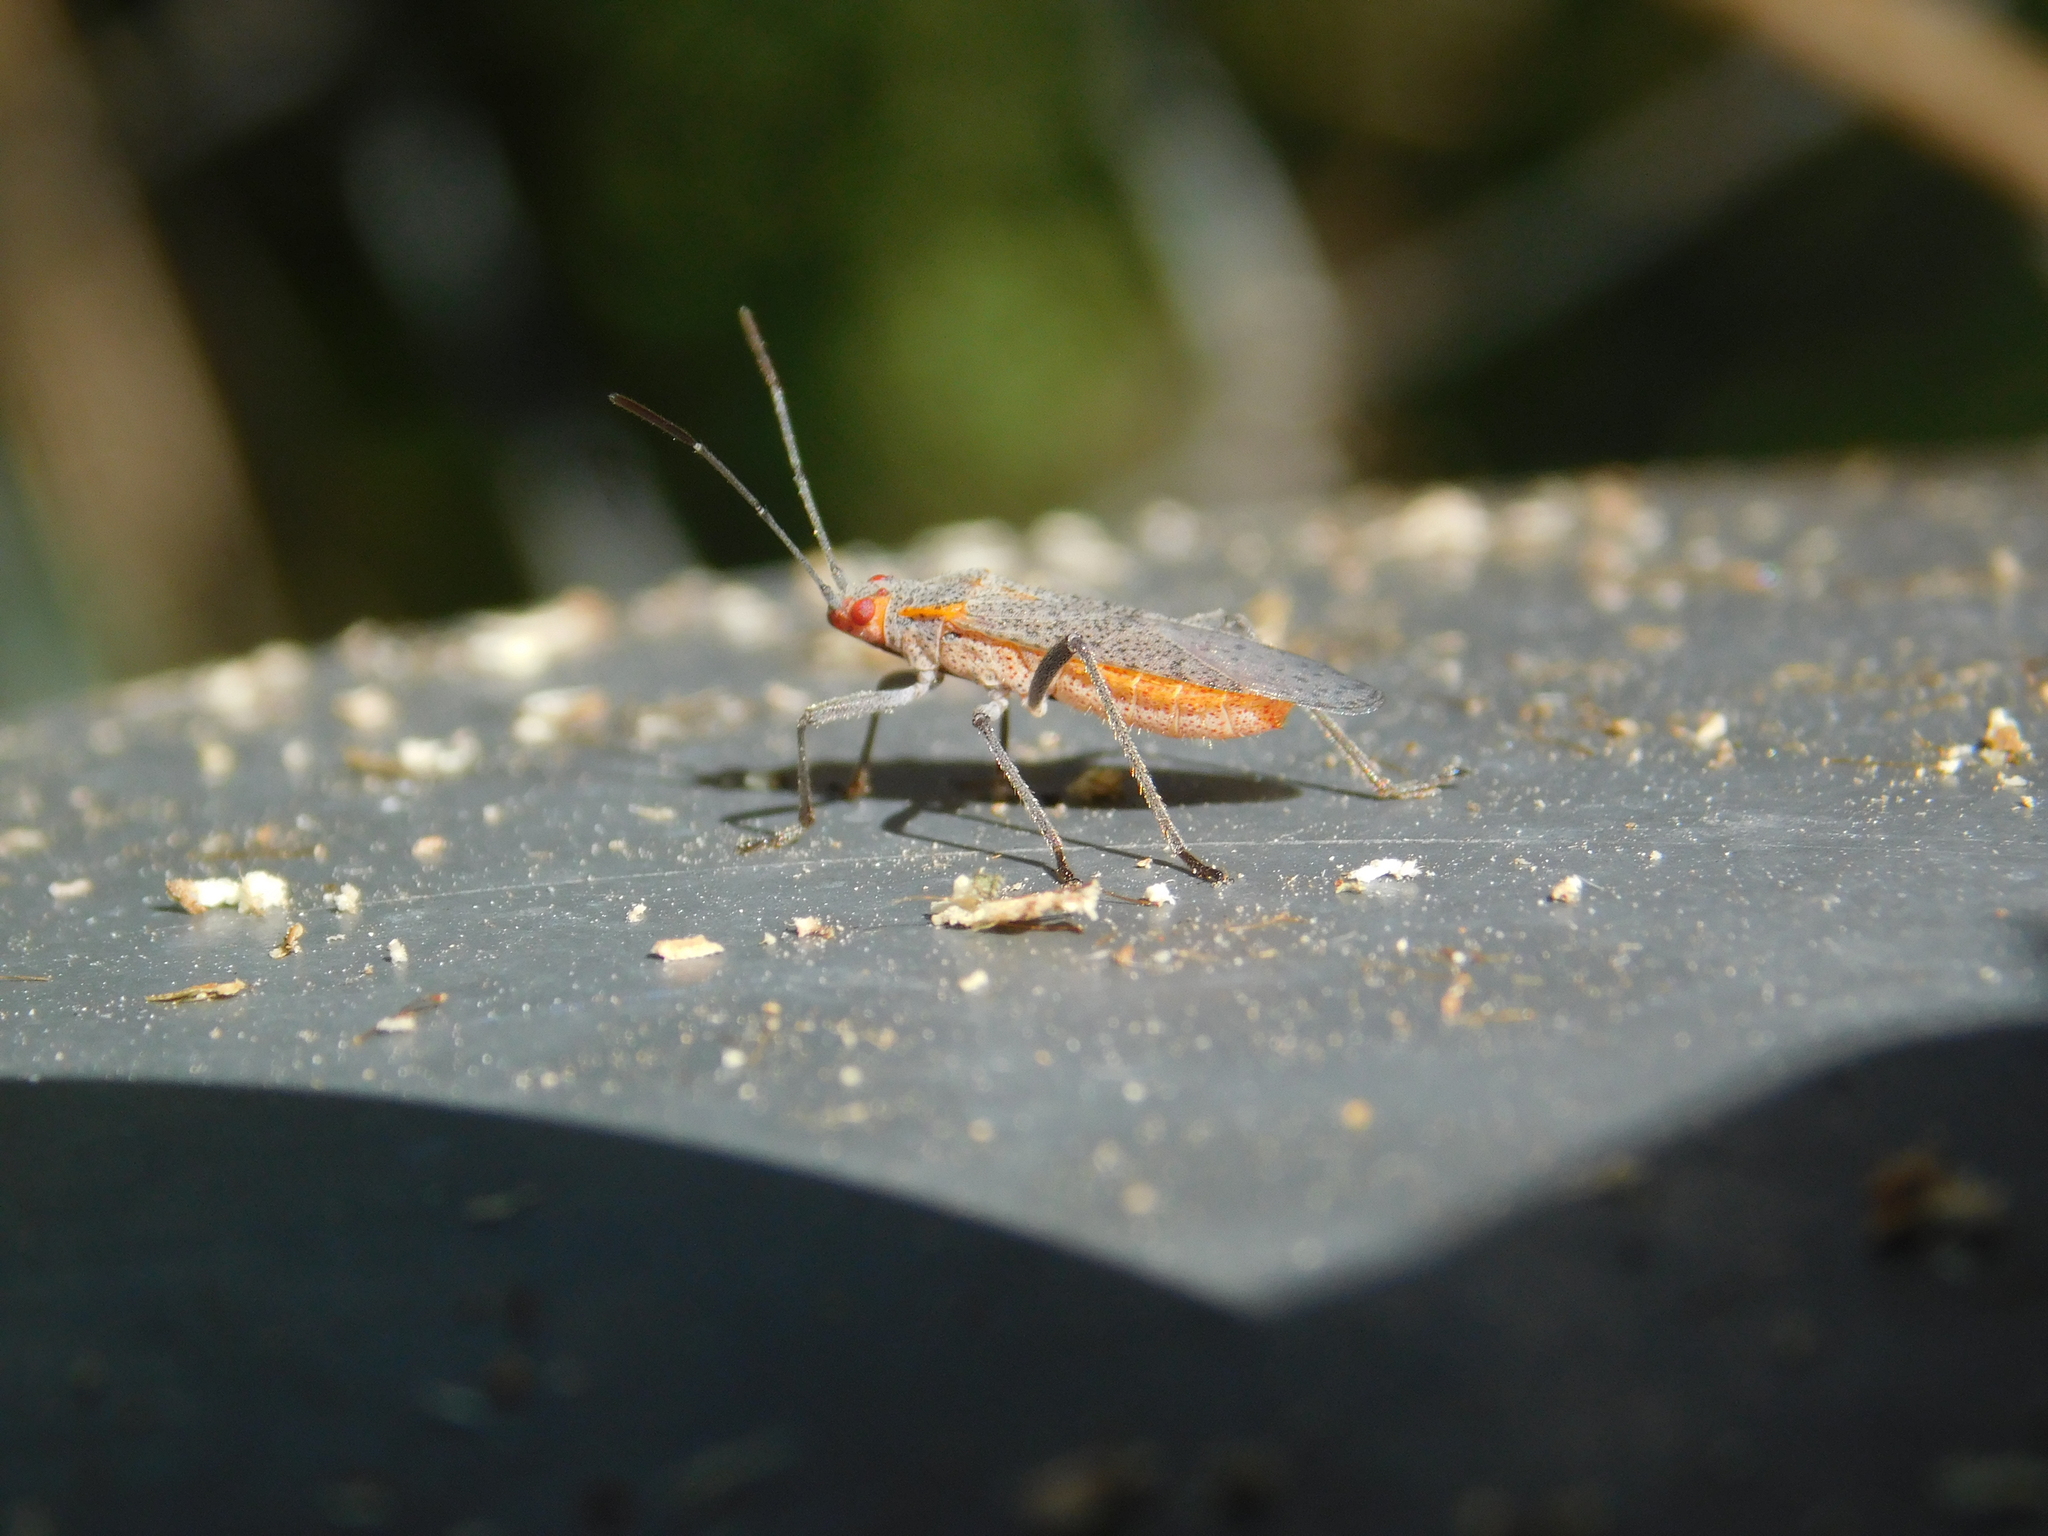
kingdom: Animalia
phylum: Arthropoda
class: Insecta
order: Hemiptera
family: Rhopalidae
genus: Jadera
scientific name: Jadera coturnix
